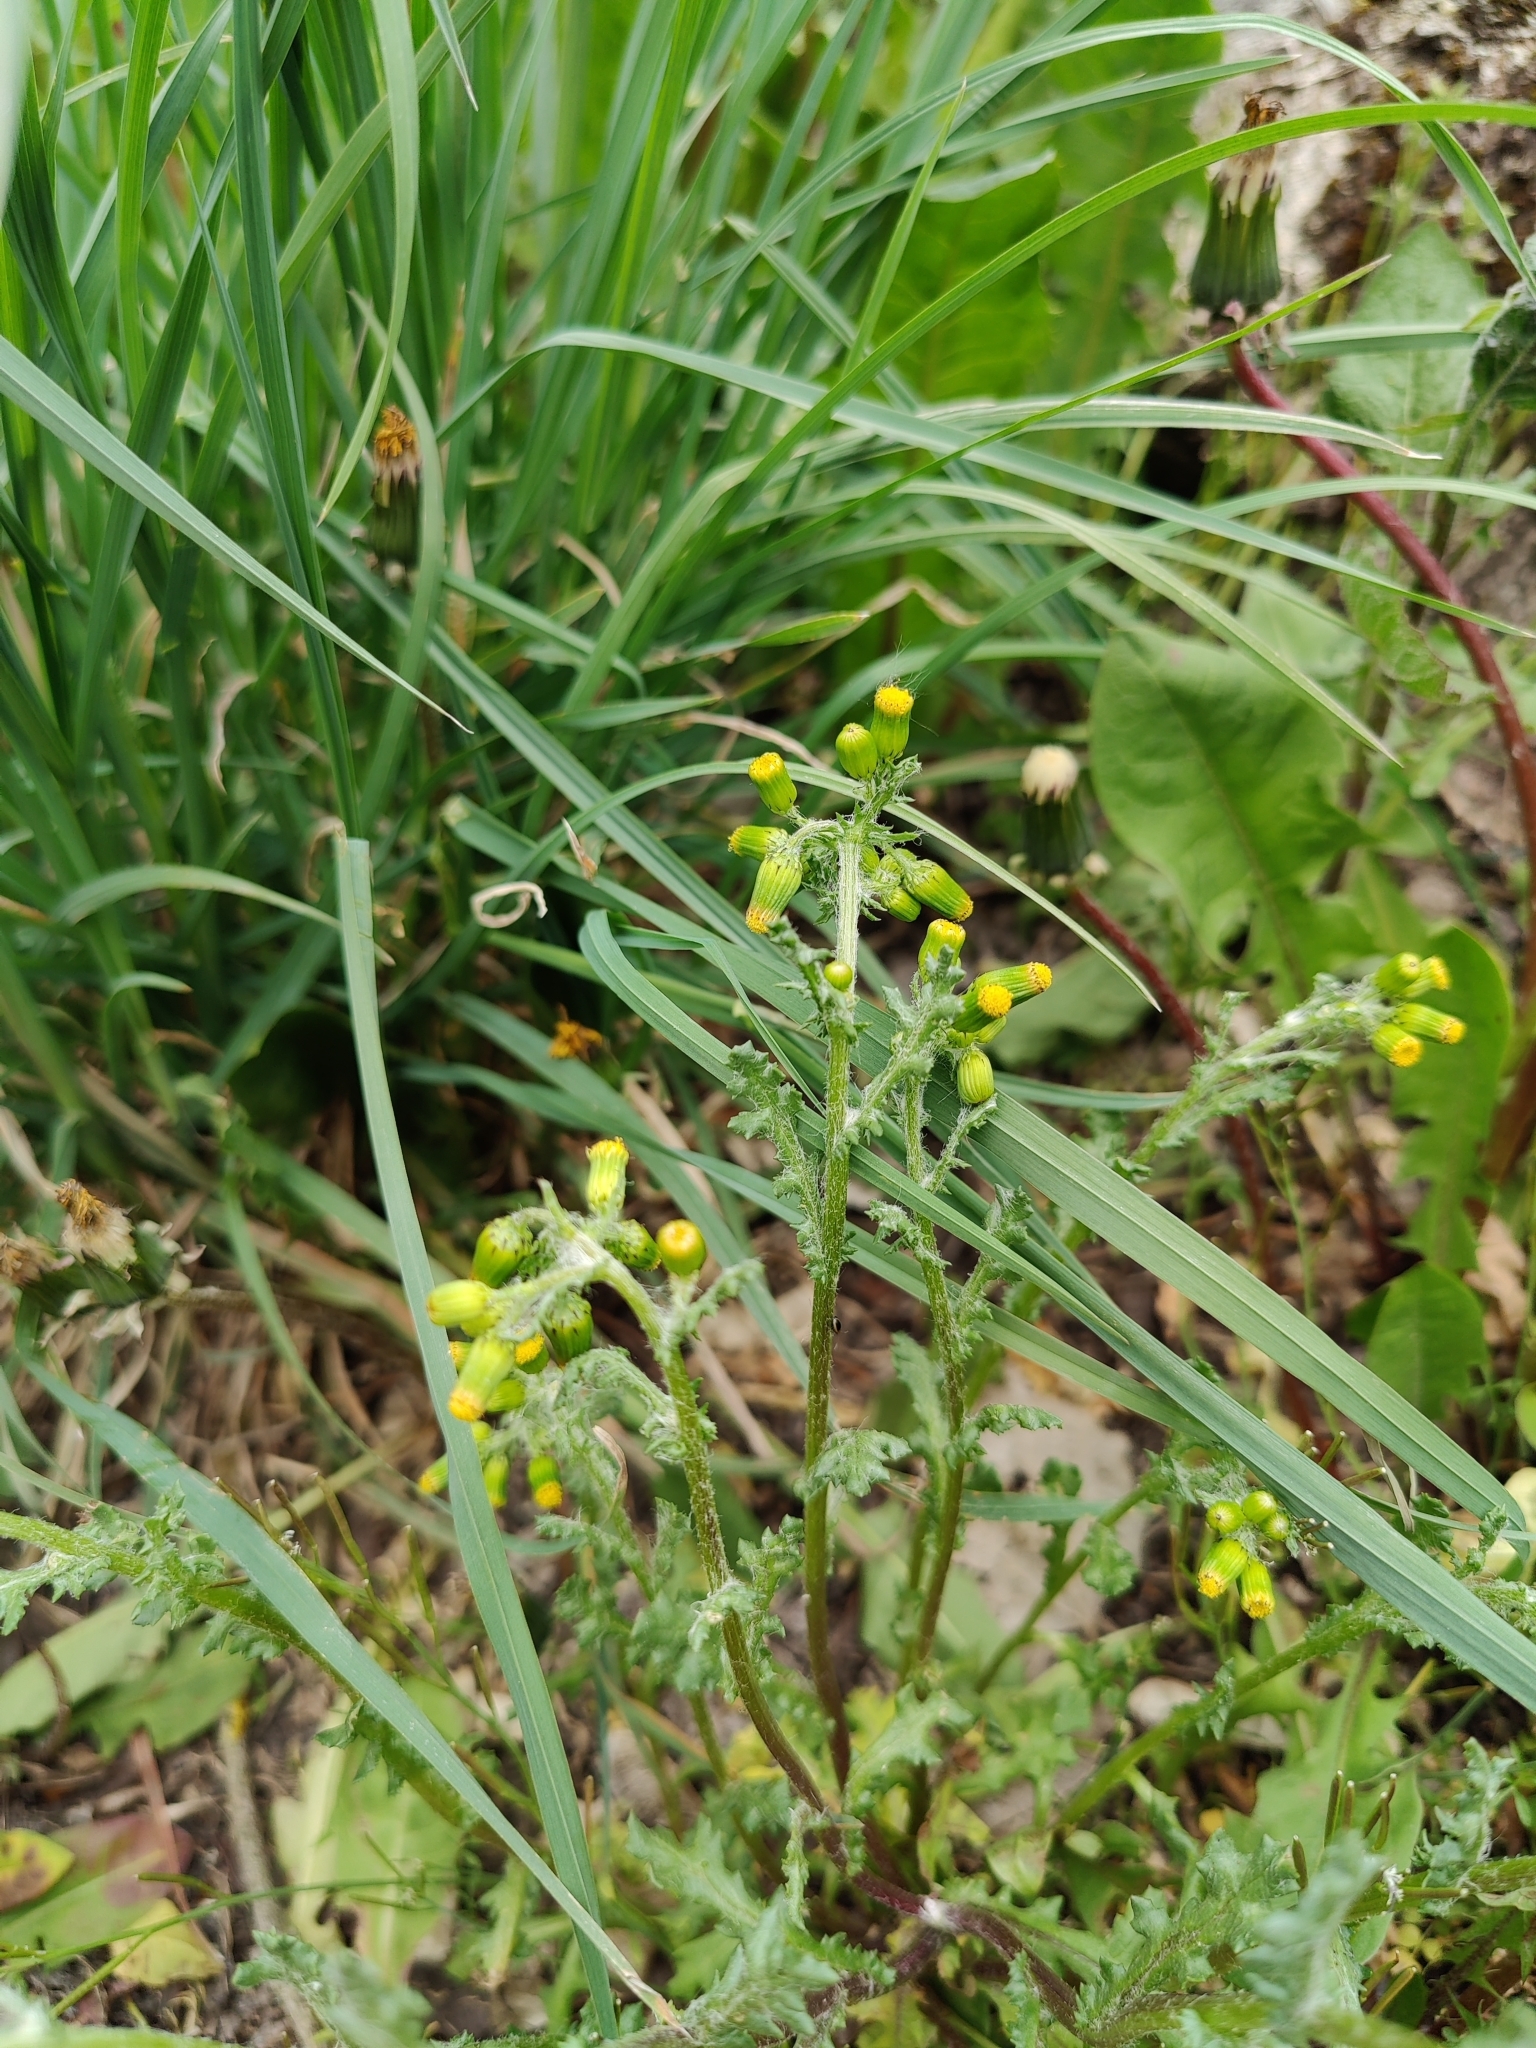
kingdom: Plantae
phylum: Tracheophyta
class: Magnoliopsida
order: Asterales
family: Asteraceae
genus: Senecio
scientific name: Senecio vulgaris
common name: Old-man-in-the-spring
